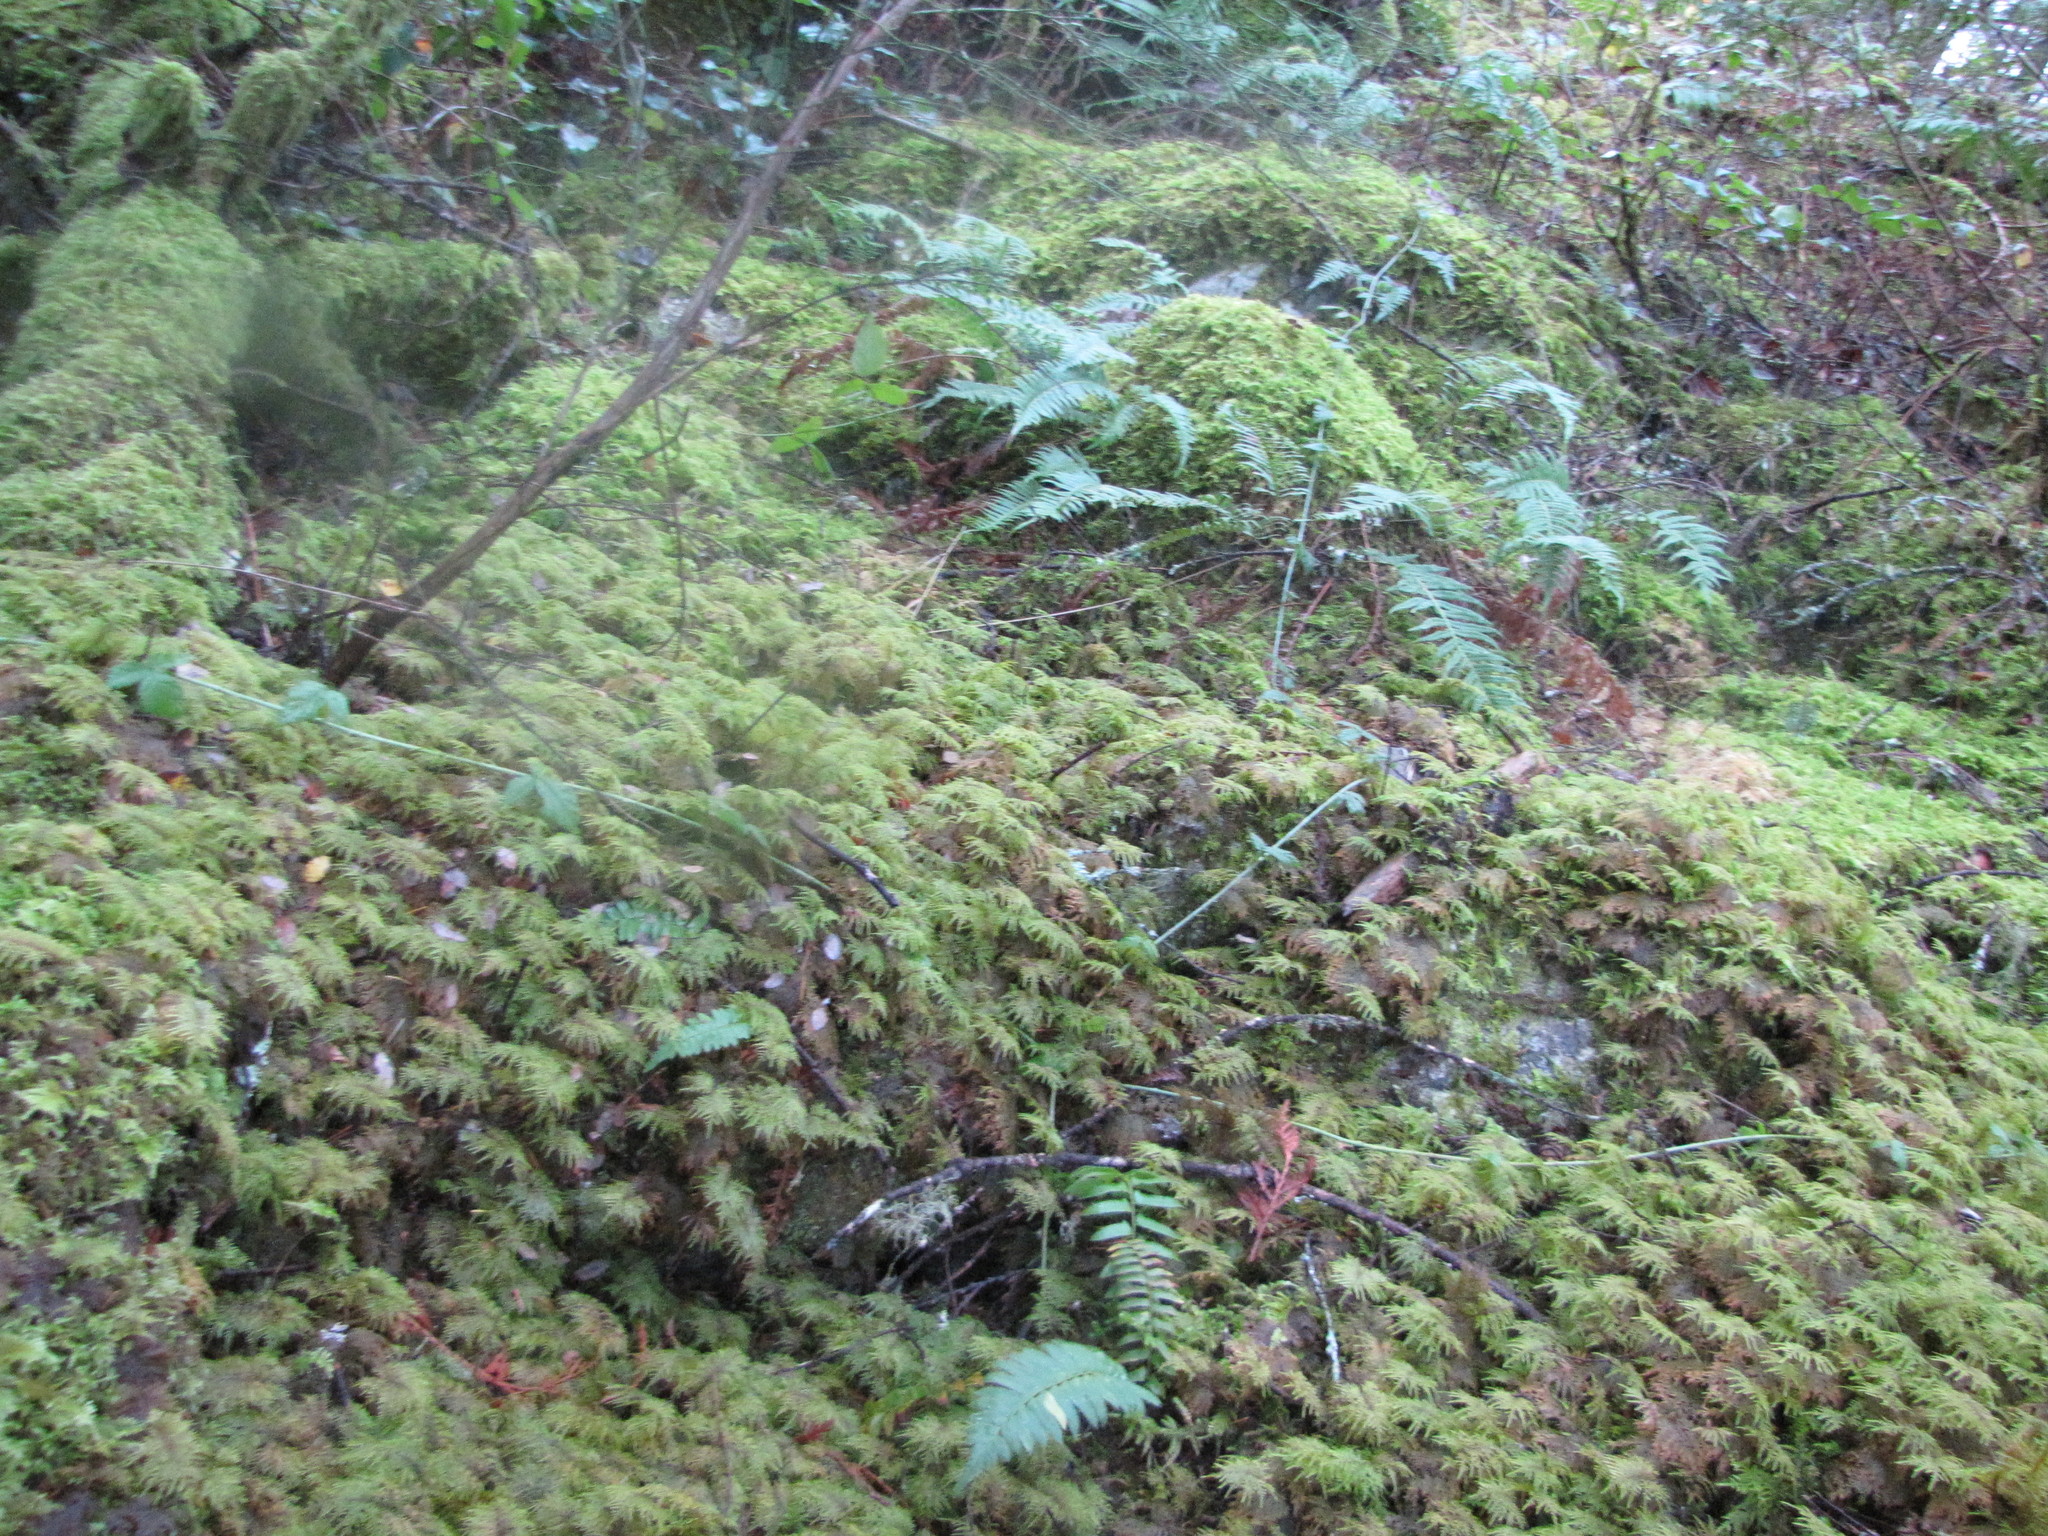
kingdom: Plantae
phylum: Bryophyta
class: Bryopsida
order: Hypnales
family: Hylocomiaceae
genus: Hylocomium
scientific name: Hylocomium splendens
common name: Stairstep moss
